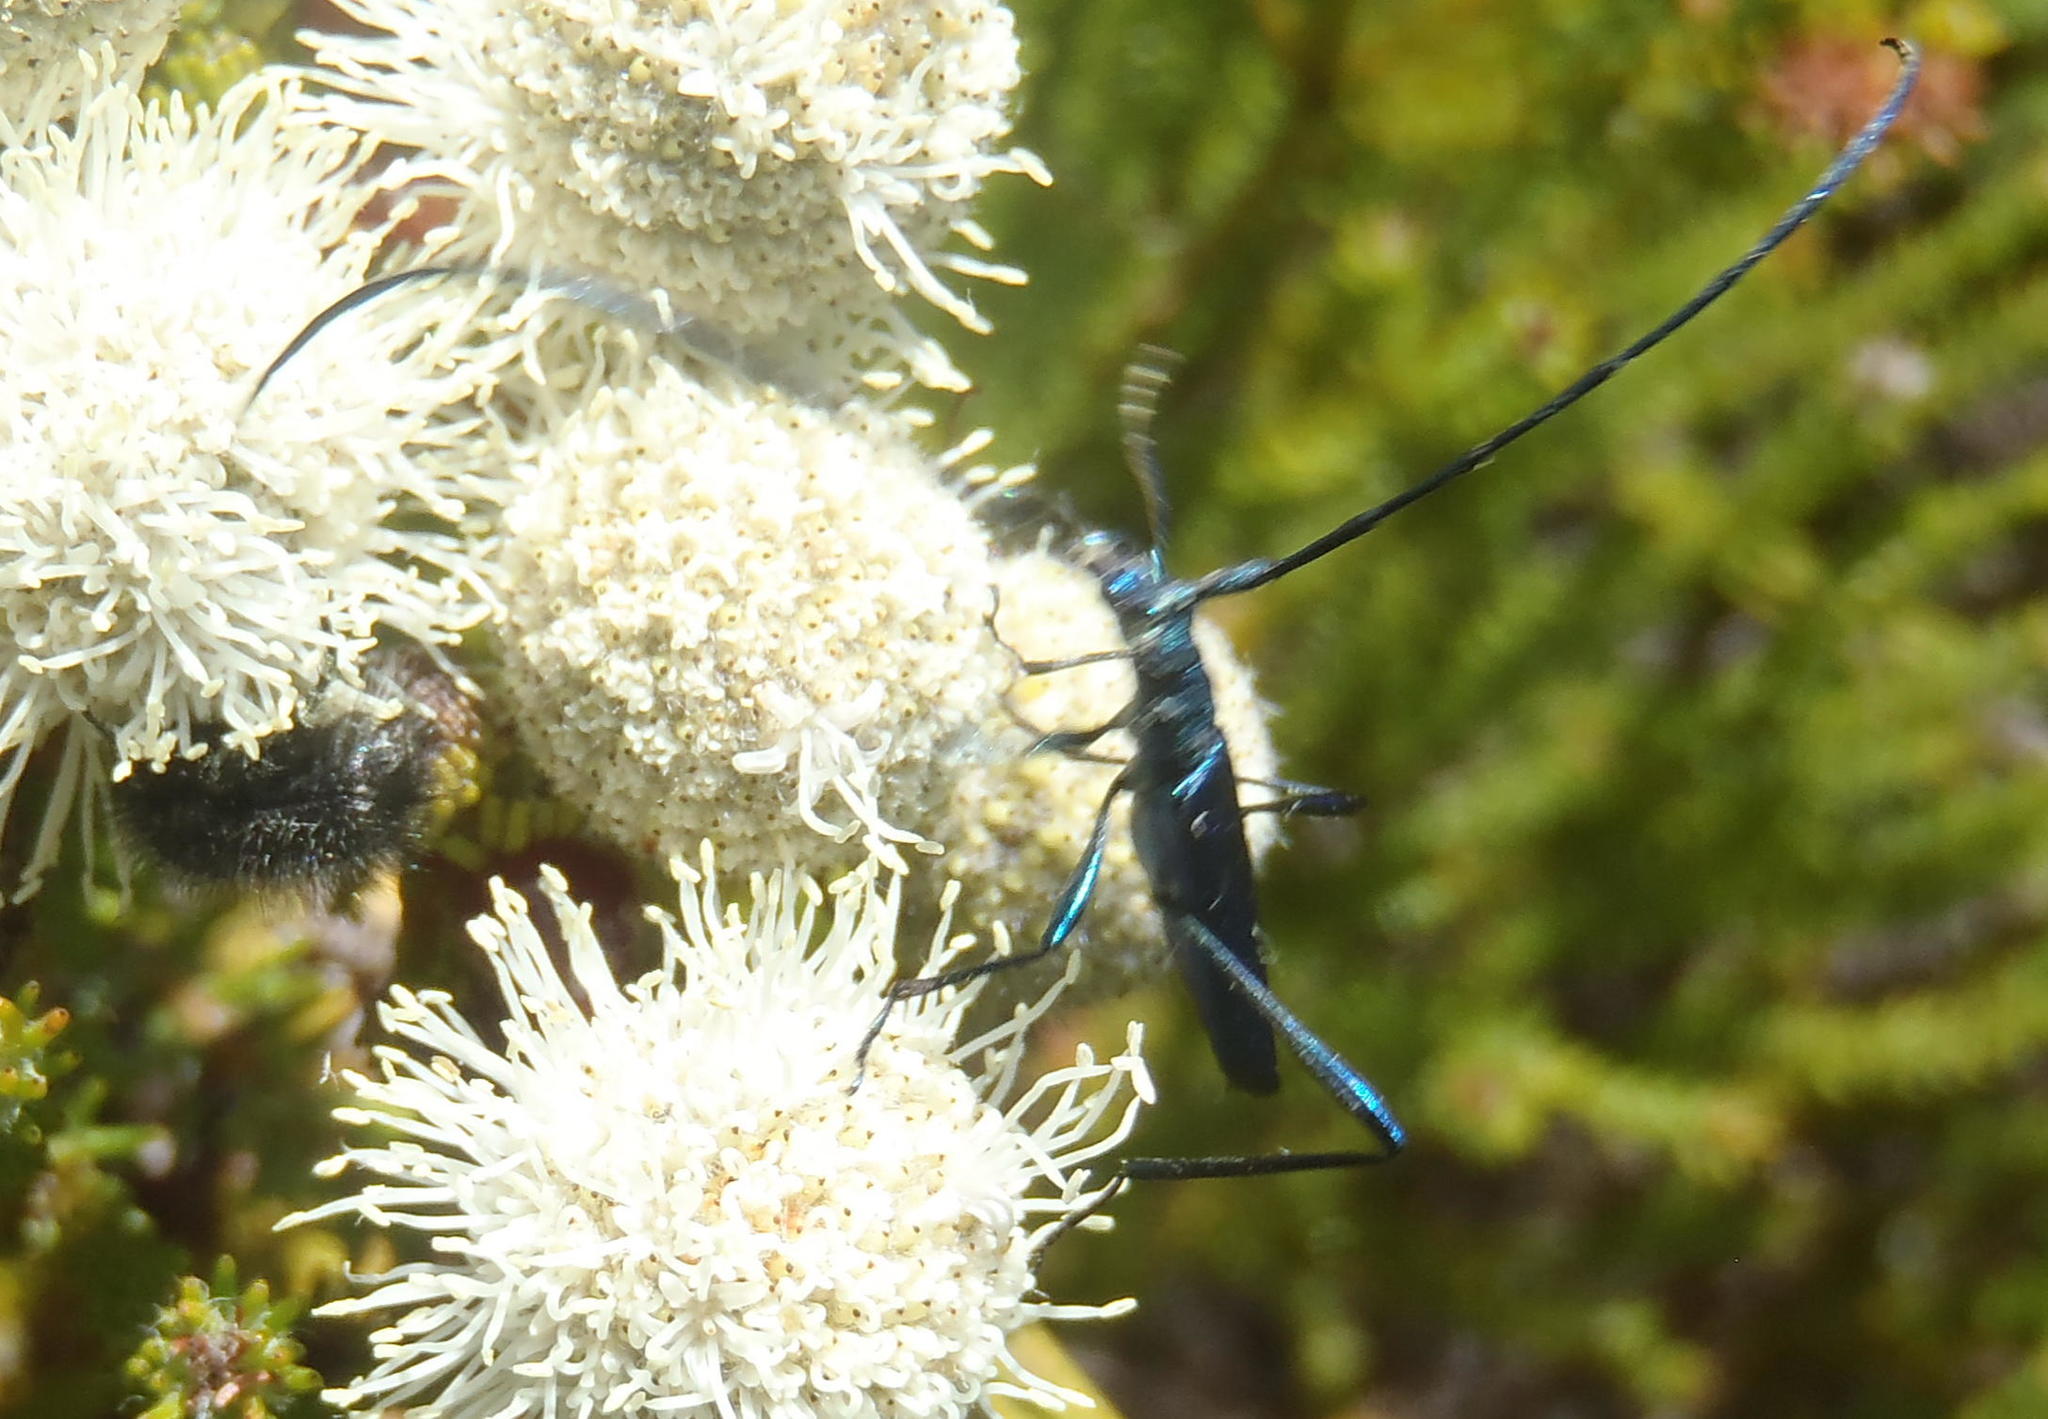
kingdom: Animalia
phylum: Arthropoda
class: Insecta
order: Coleoptera
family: Cerambycidae
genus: Promeces
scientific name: Promeces longipes
